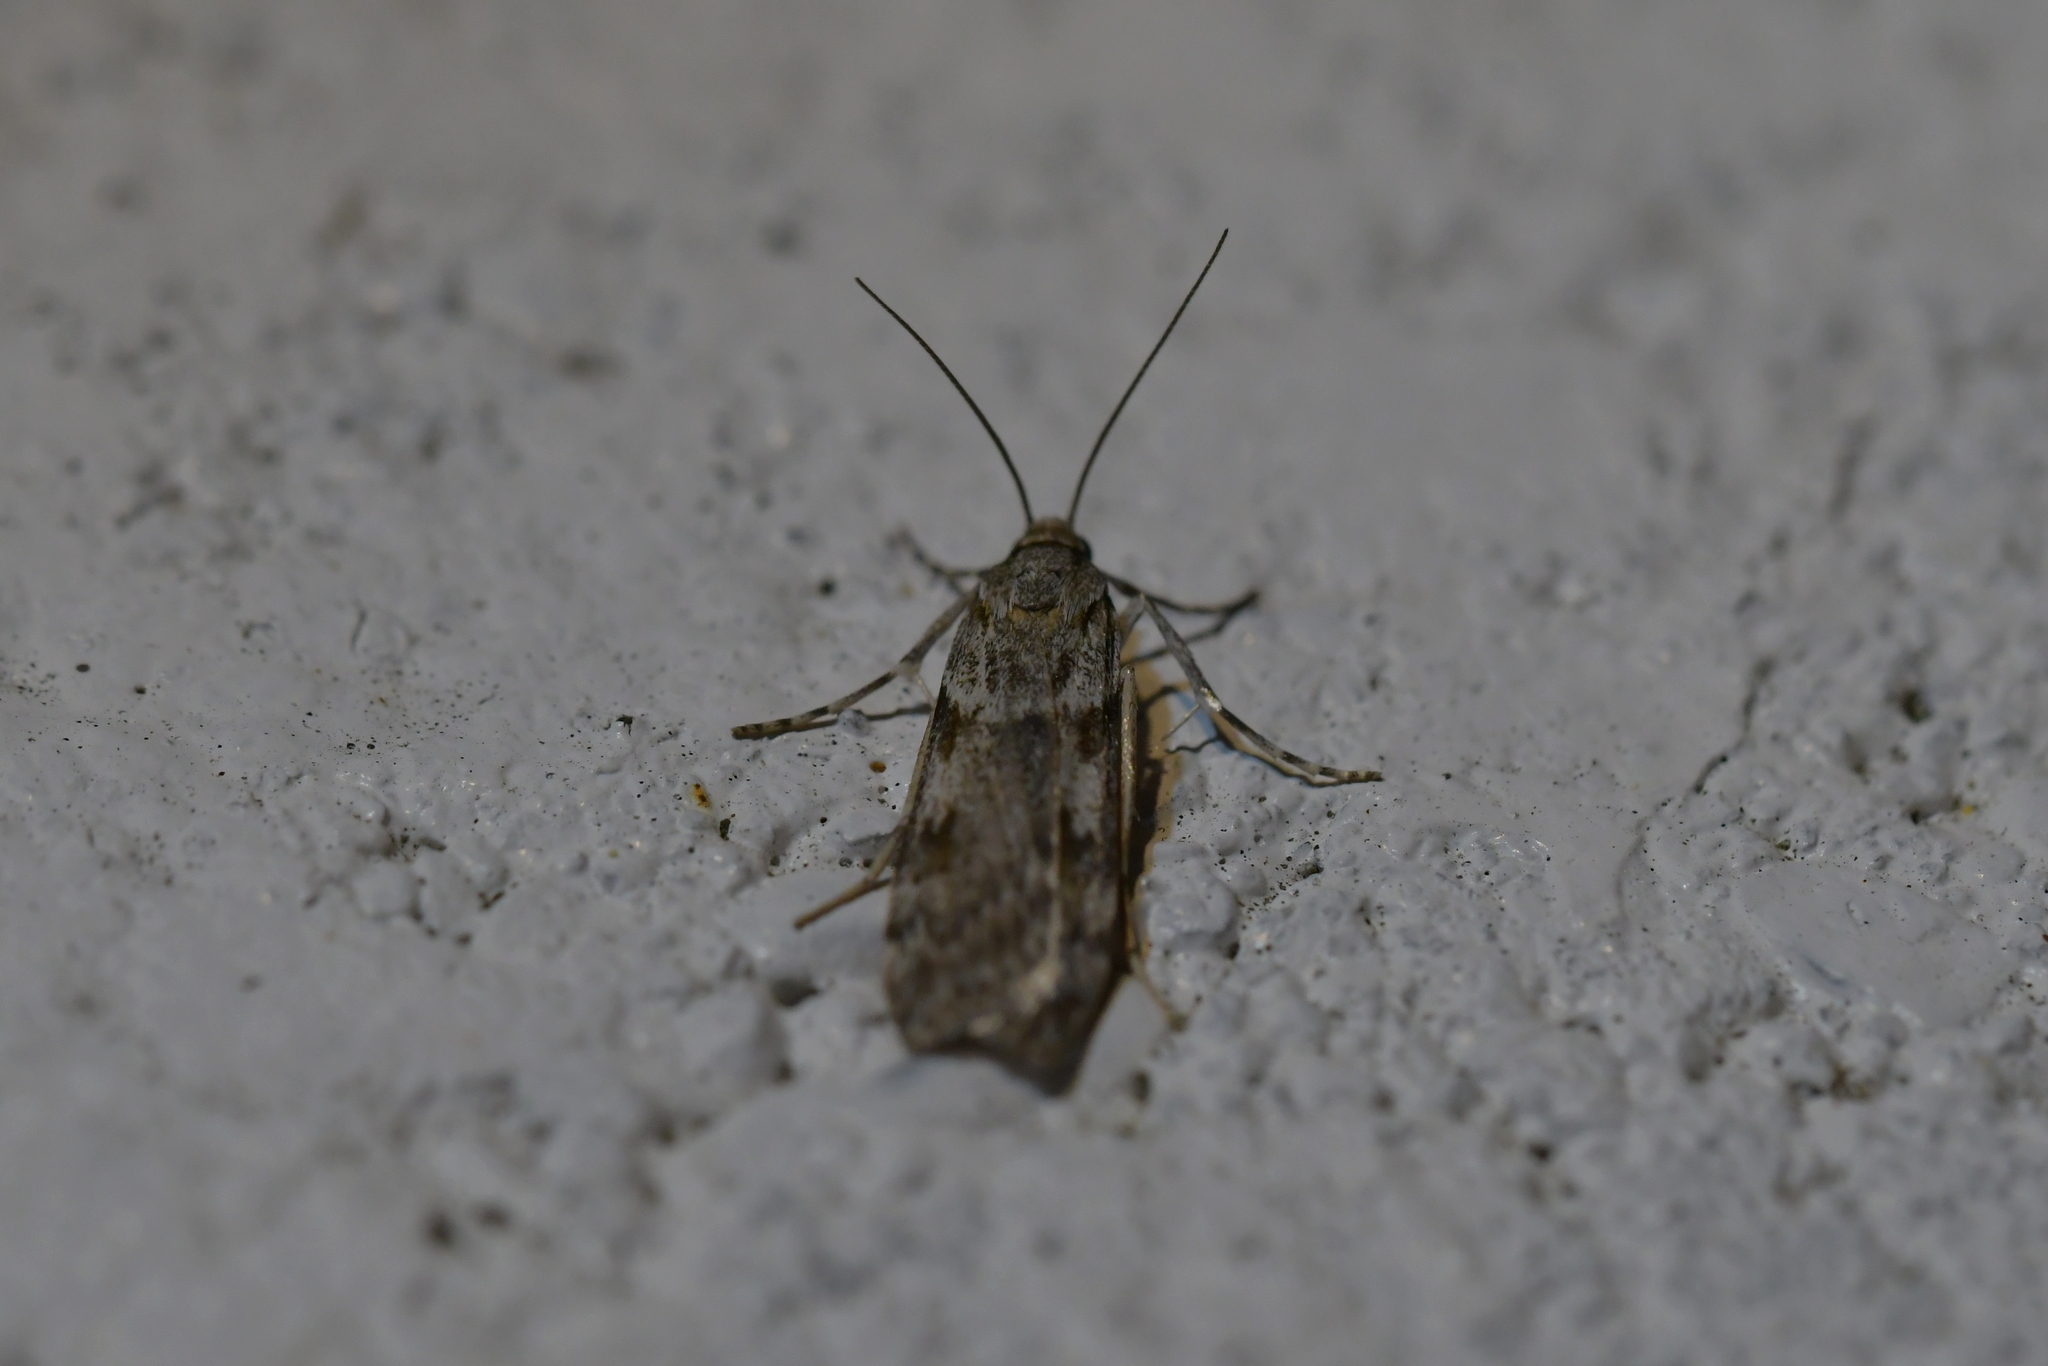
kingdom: Animalia
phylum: Arthropoda
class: Insecta
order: Lepidoptera
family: Crambidae
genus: Scoparia
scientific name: Scoparia halopis
